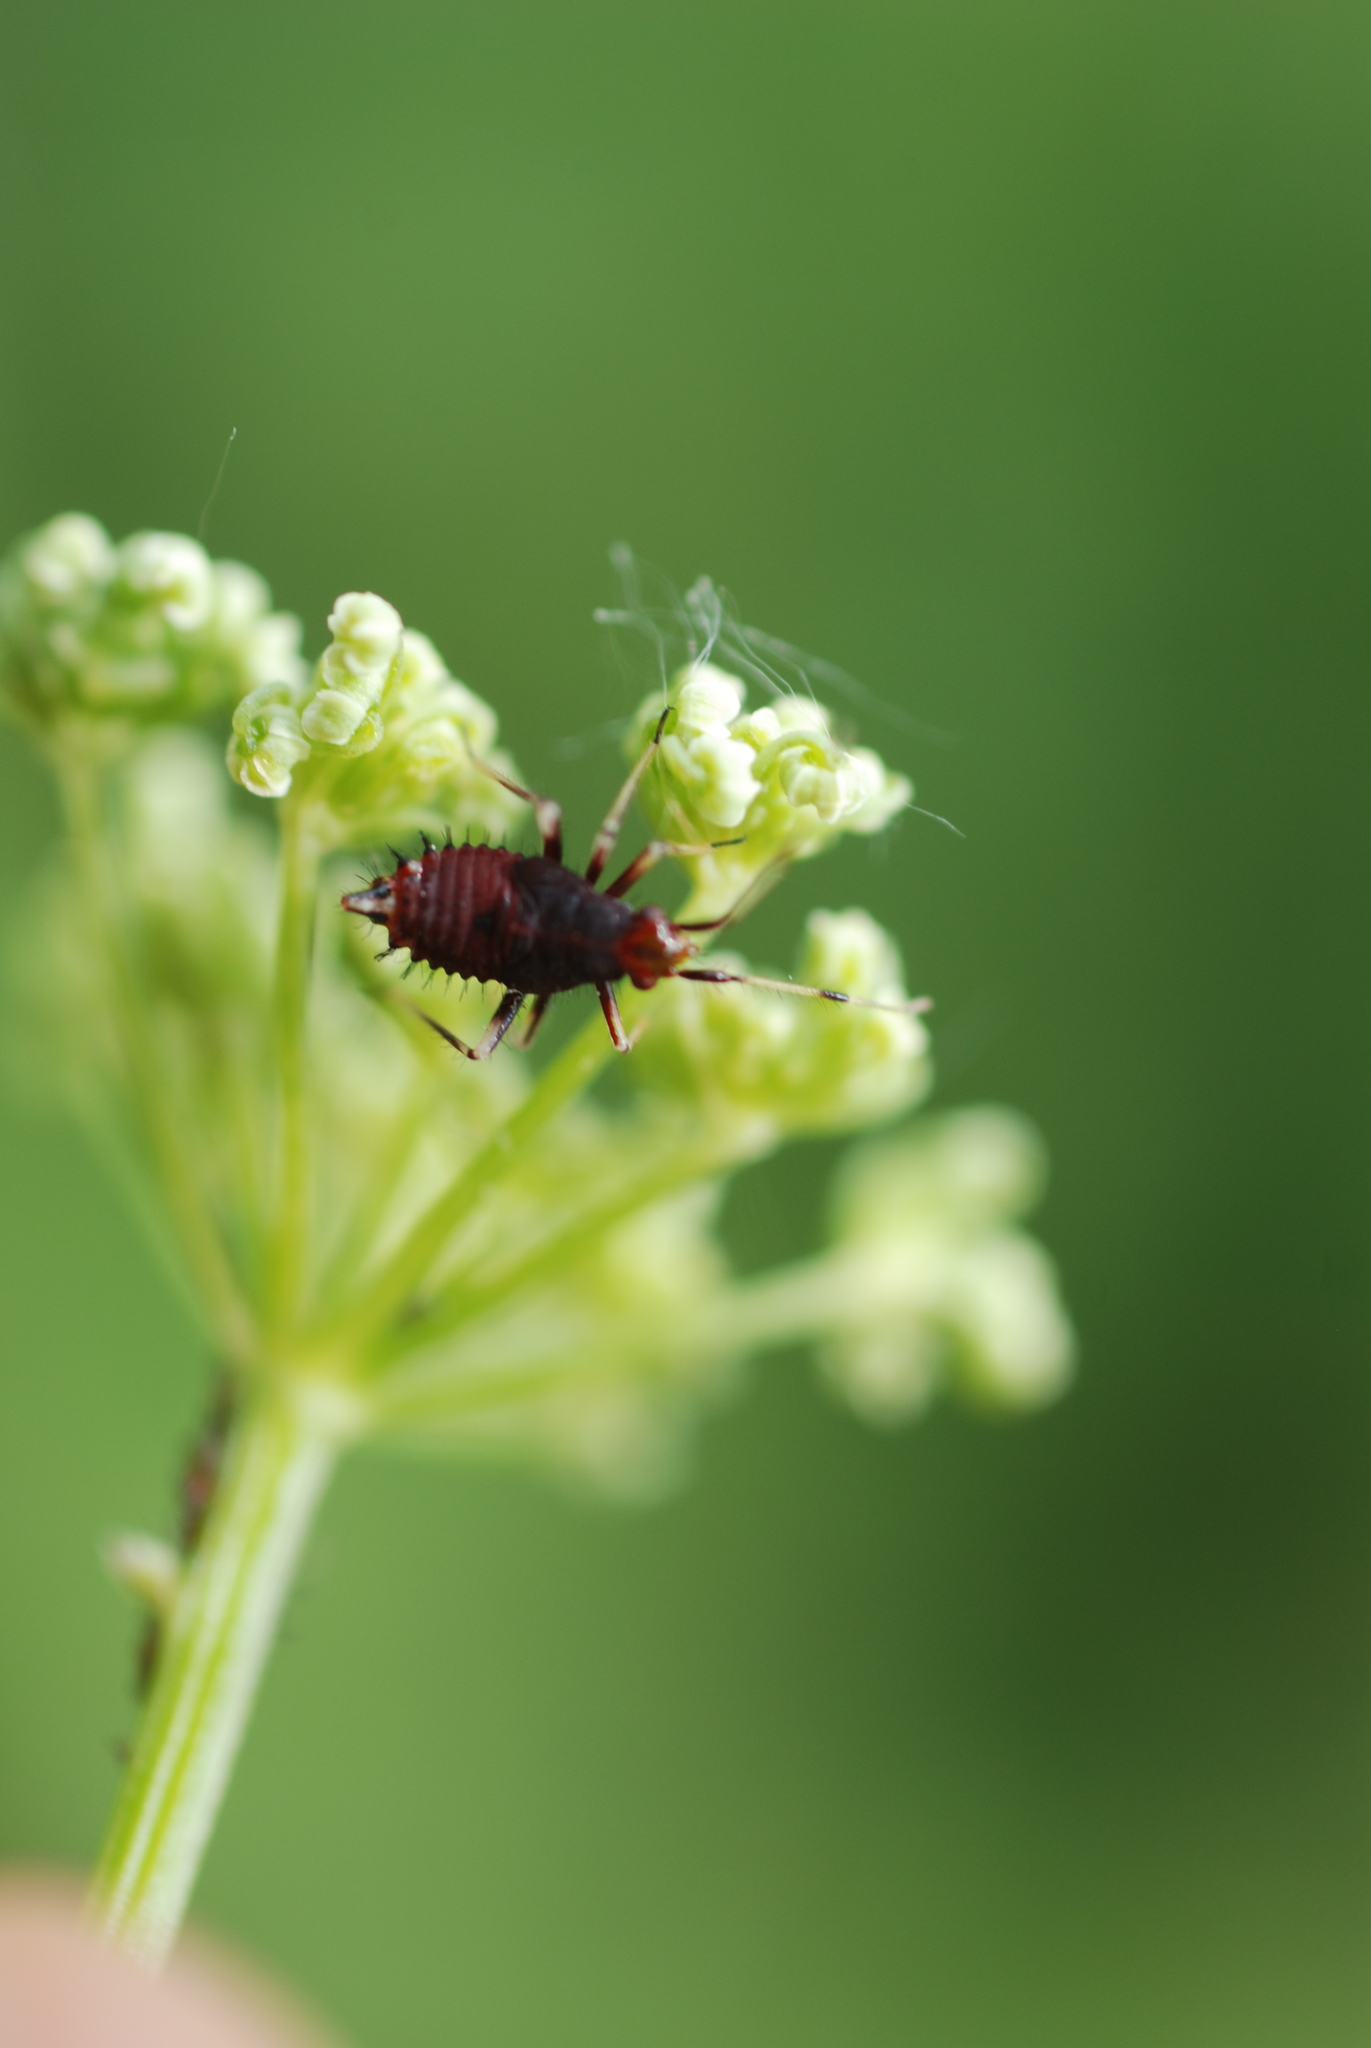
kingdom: Animalia
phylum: Arthropoda
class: Insecta
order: Hemiptera
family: Miridae
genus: Deraeocoris
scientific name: Deraeocoris ruber
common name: Plant bug
